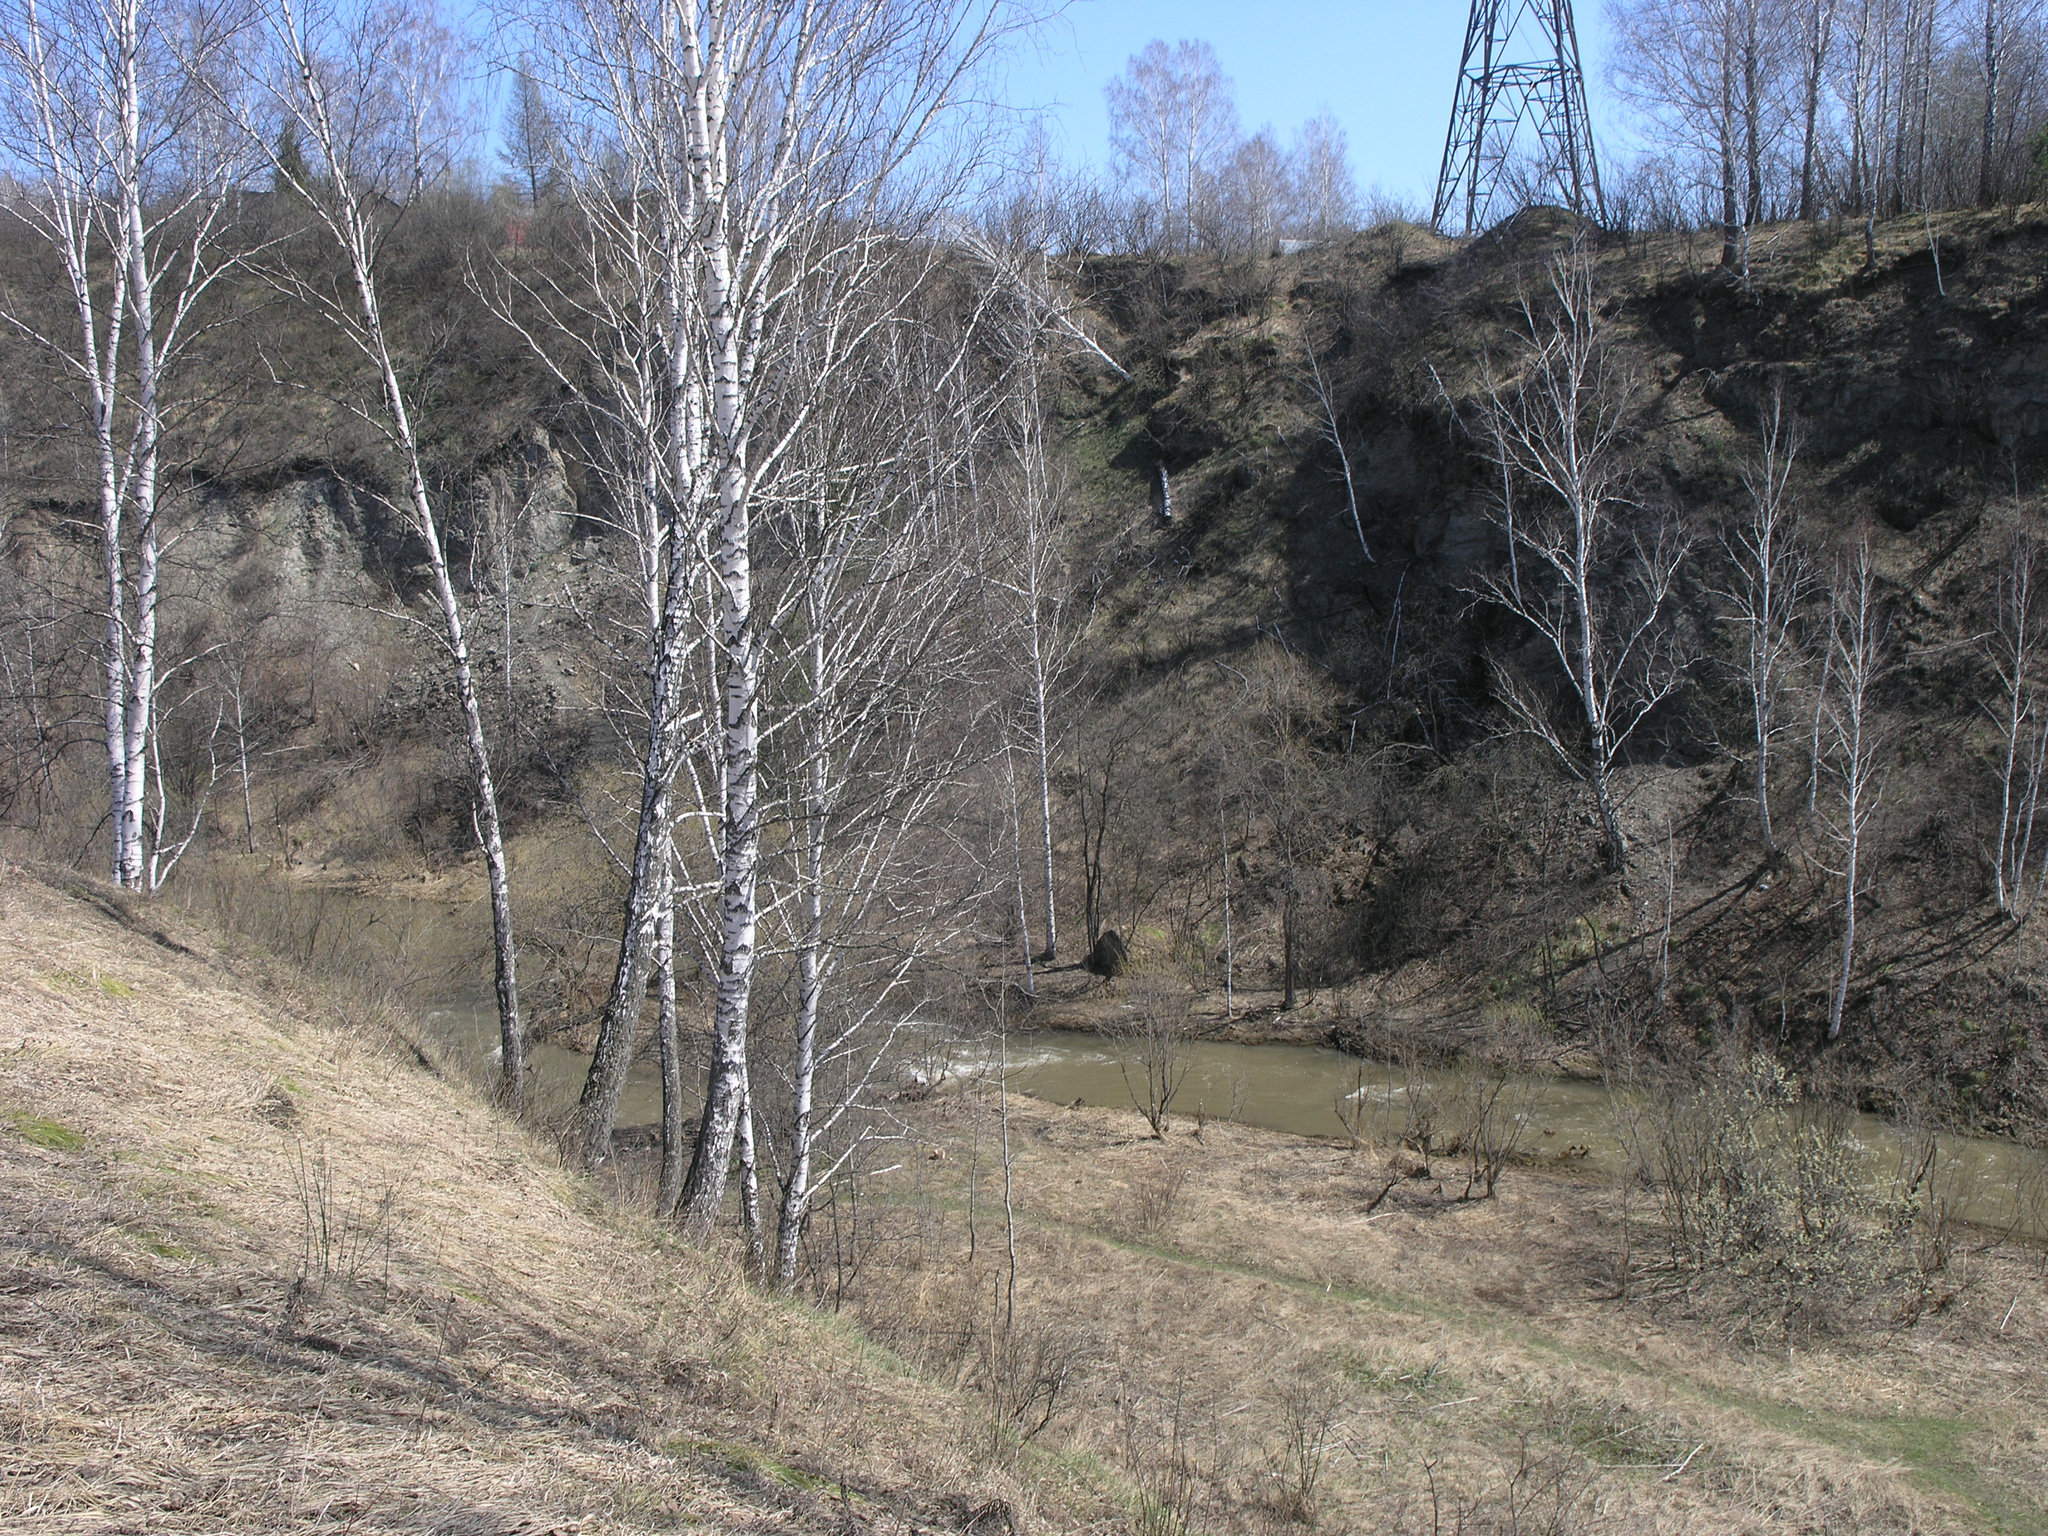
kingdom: Plantae
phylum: Tracheophyta
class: Magnoliopsida
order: Fagales
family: Betulaceae
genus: Betula
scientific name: Betula pendula
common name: Silver birch
